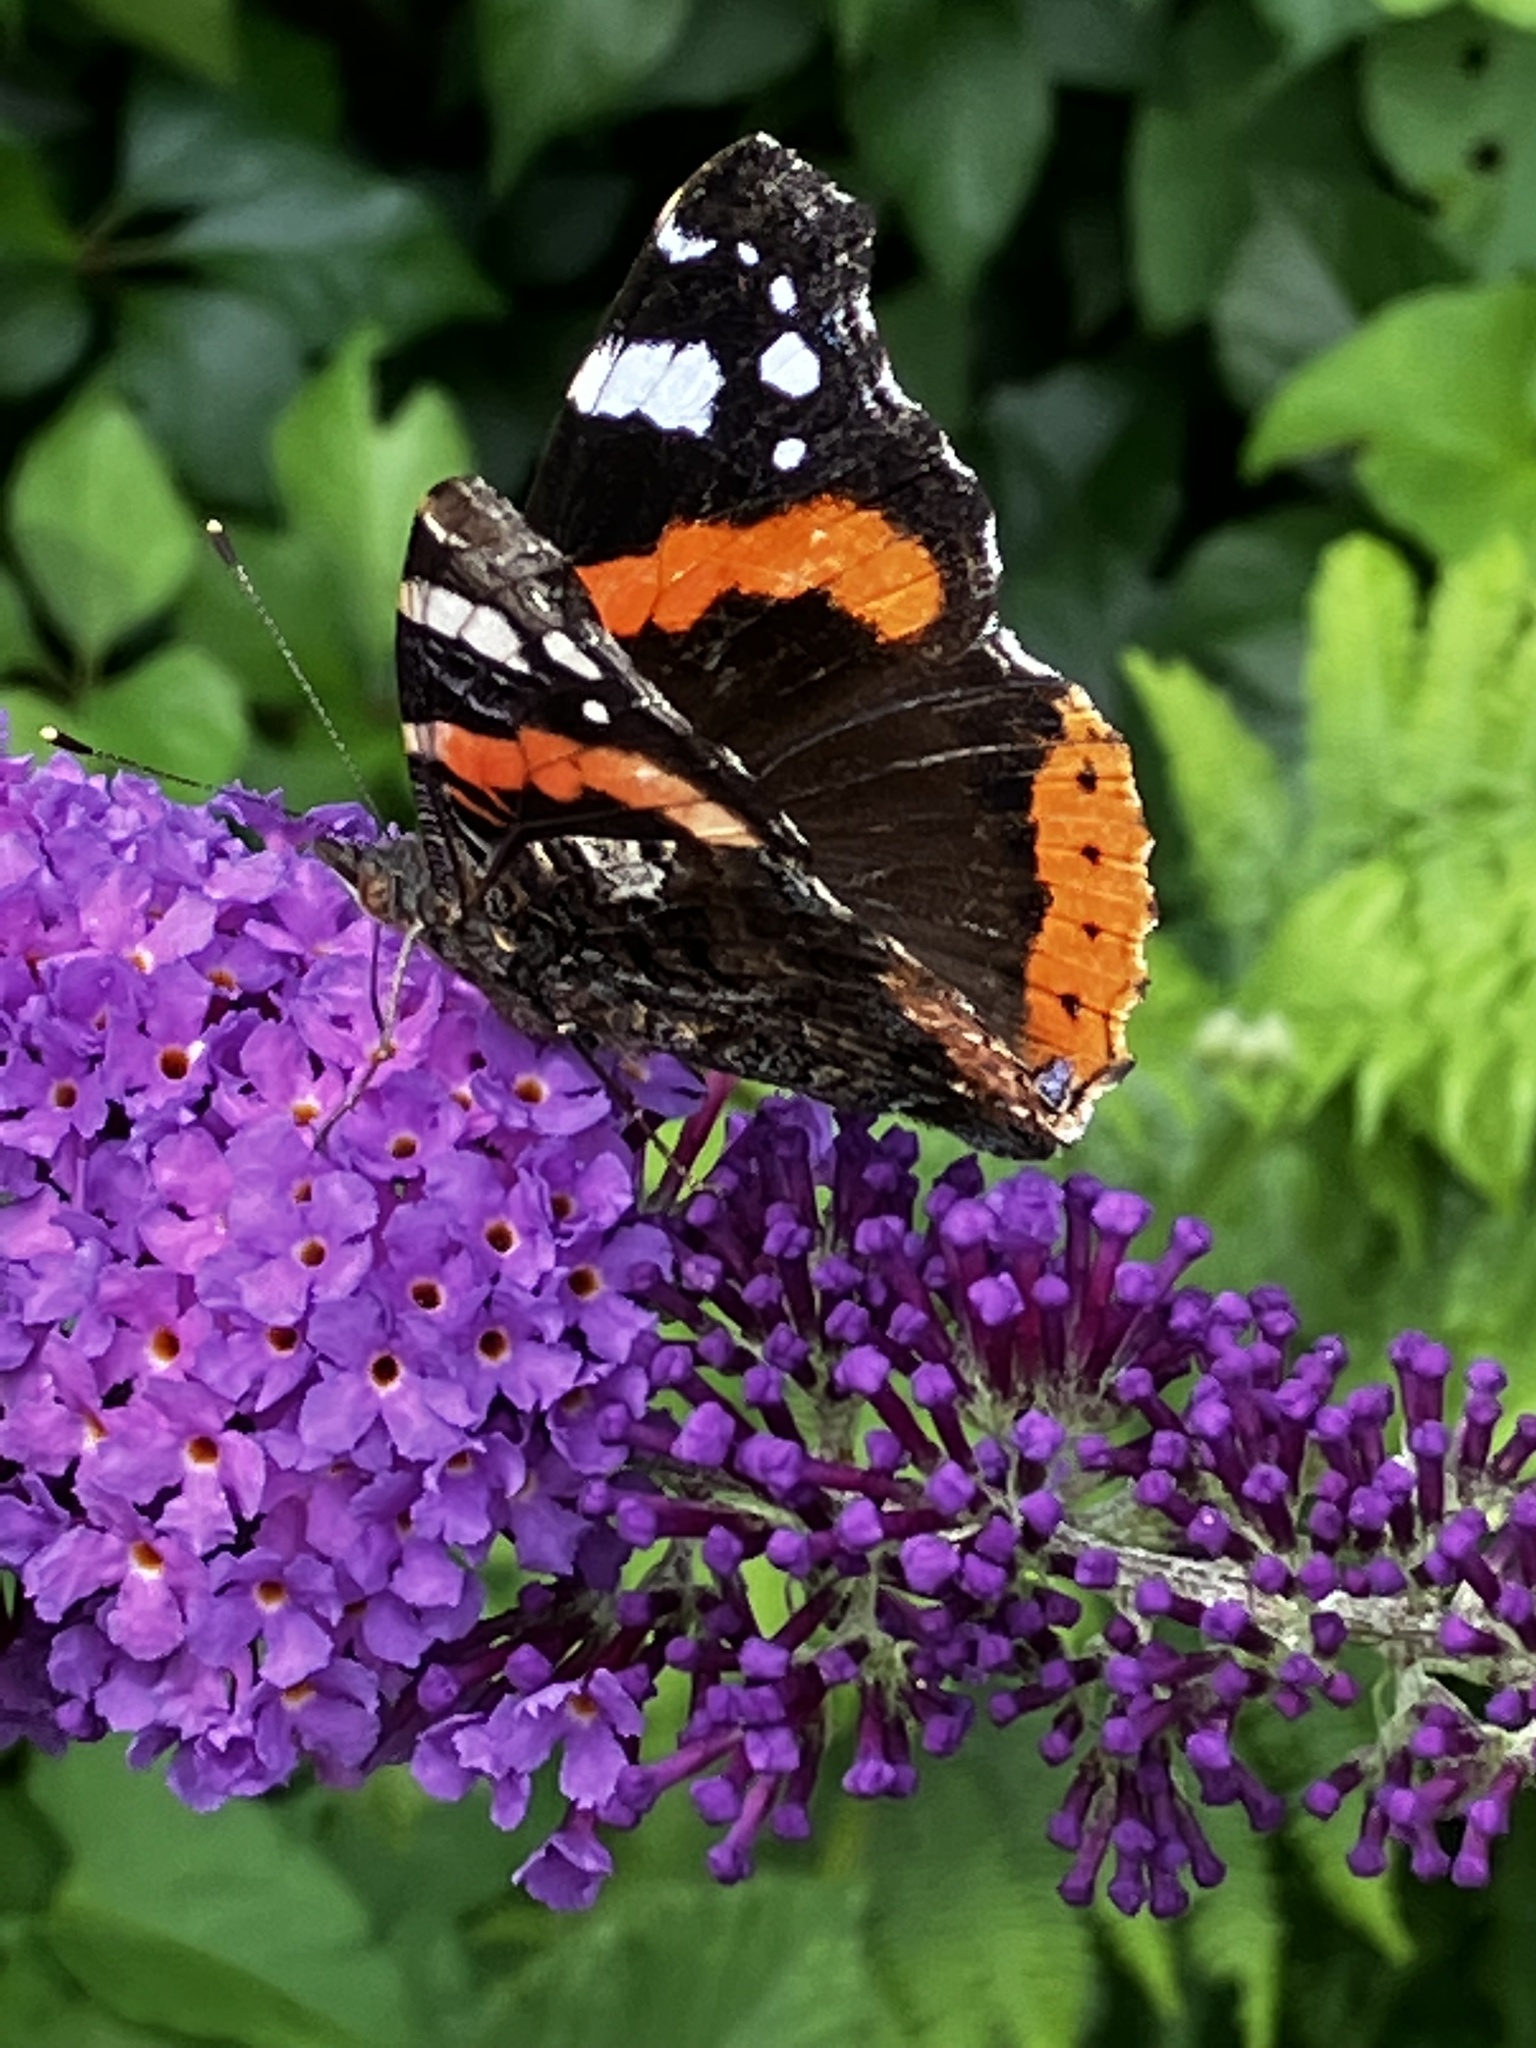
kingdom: Animalia
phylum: Arthropoda
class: Insecta
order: Lepidoptera
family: Nymphalidae
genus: Vanessa
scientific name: Vanessa atalanta
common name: Red admiral
